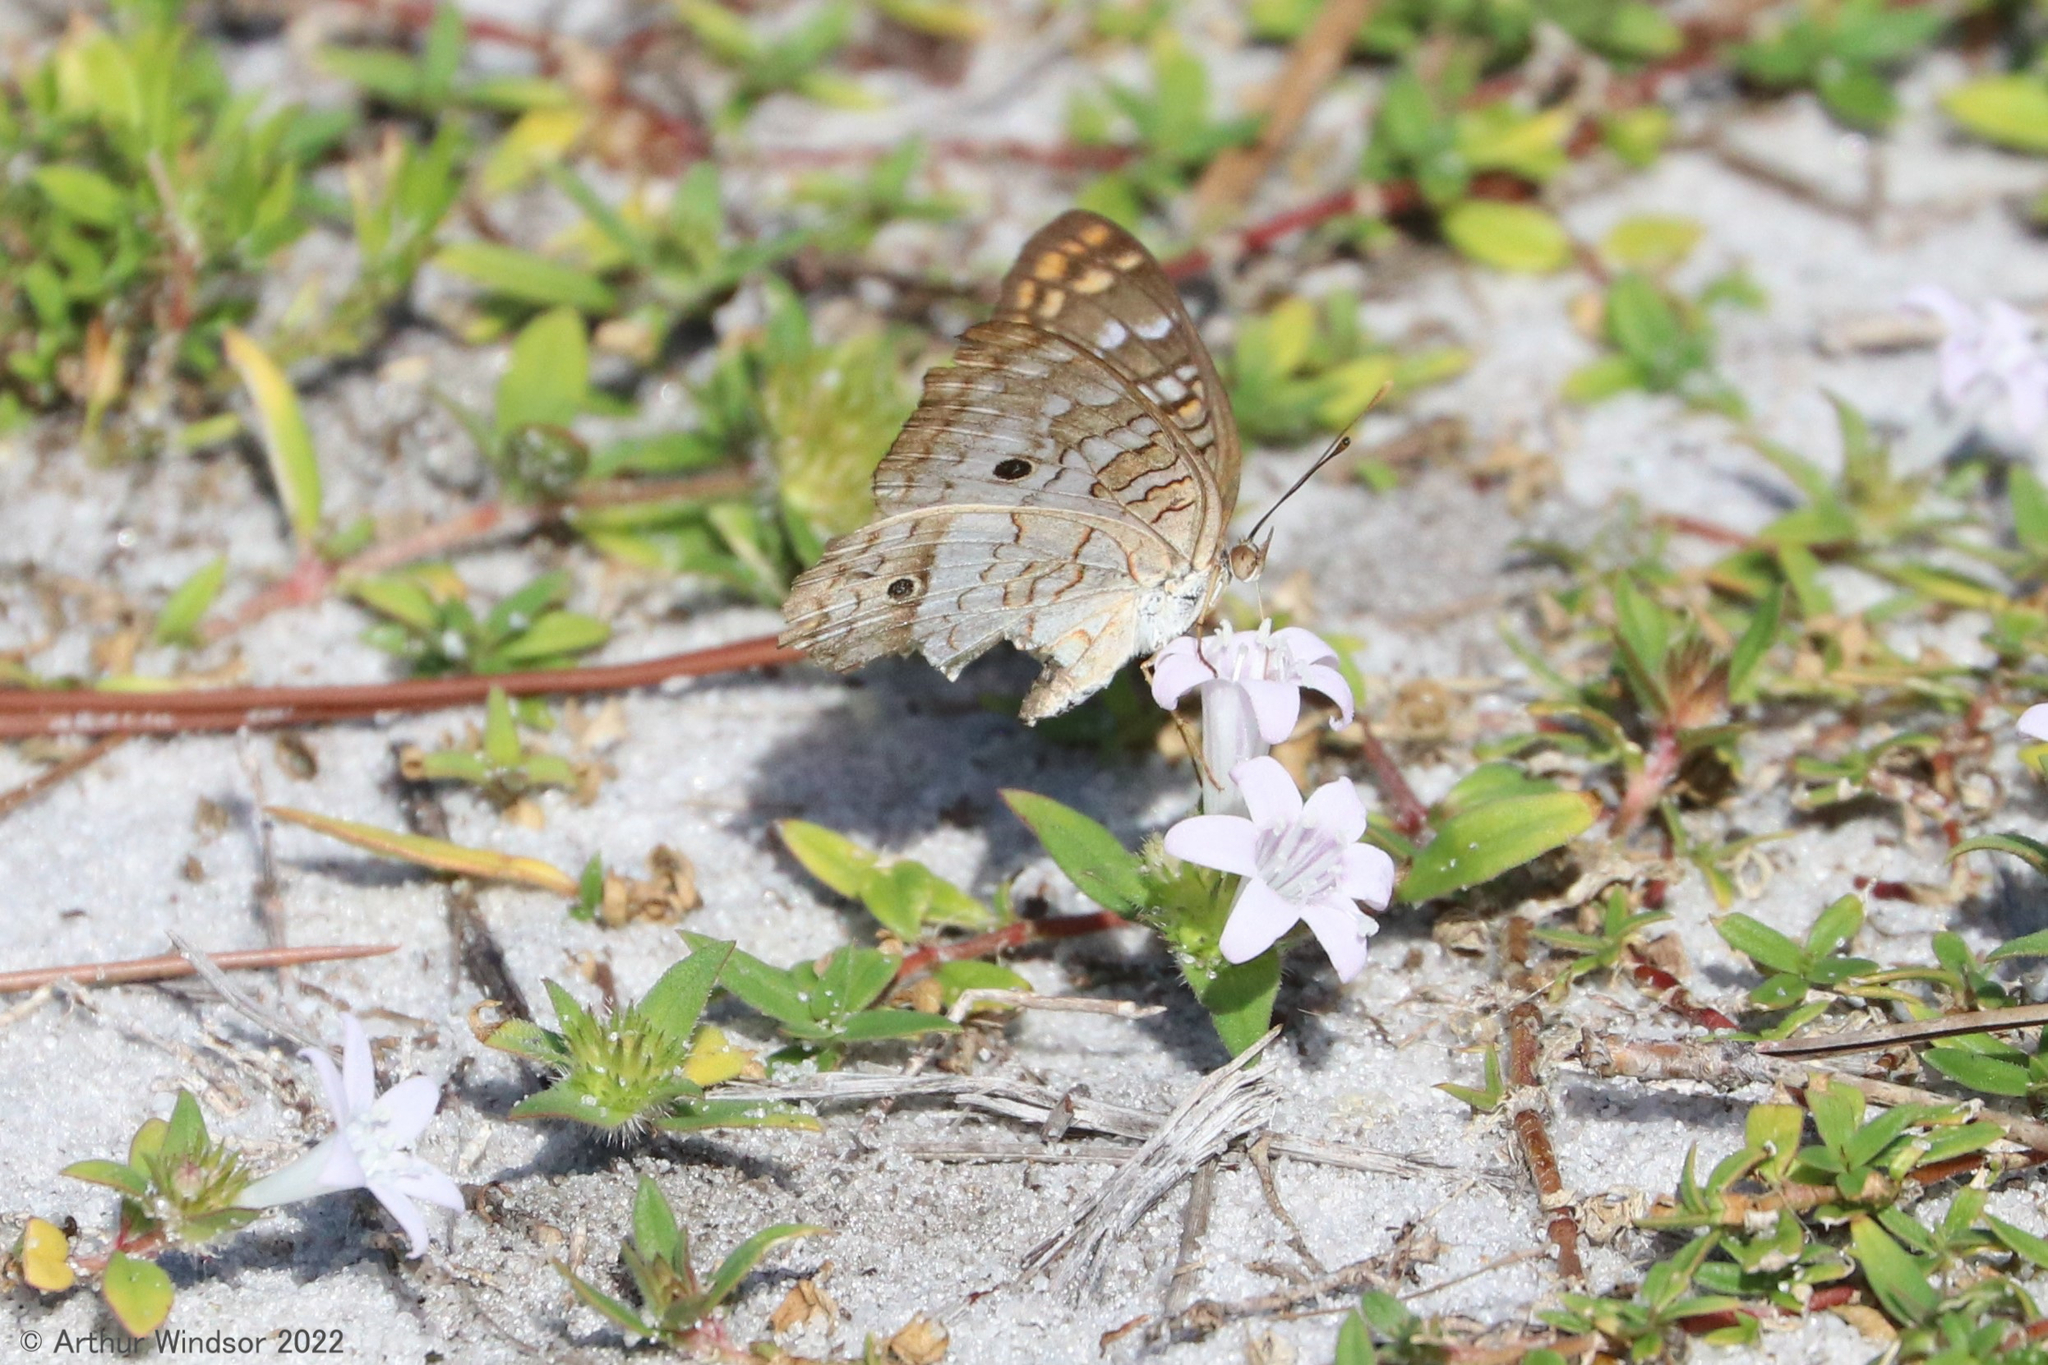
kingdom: Animalia
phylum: Arthropoda
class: Insecta
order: Lepidoptera
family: Nymphalidae
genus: Anartia
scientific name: Anartia jatrophae
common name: White peacock
